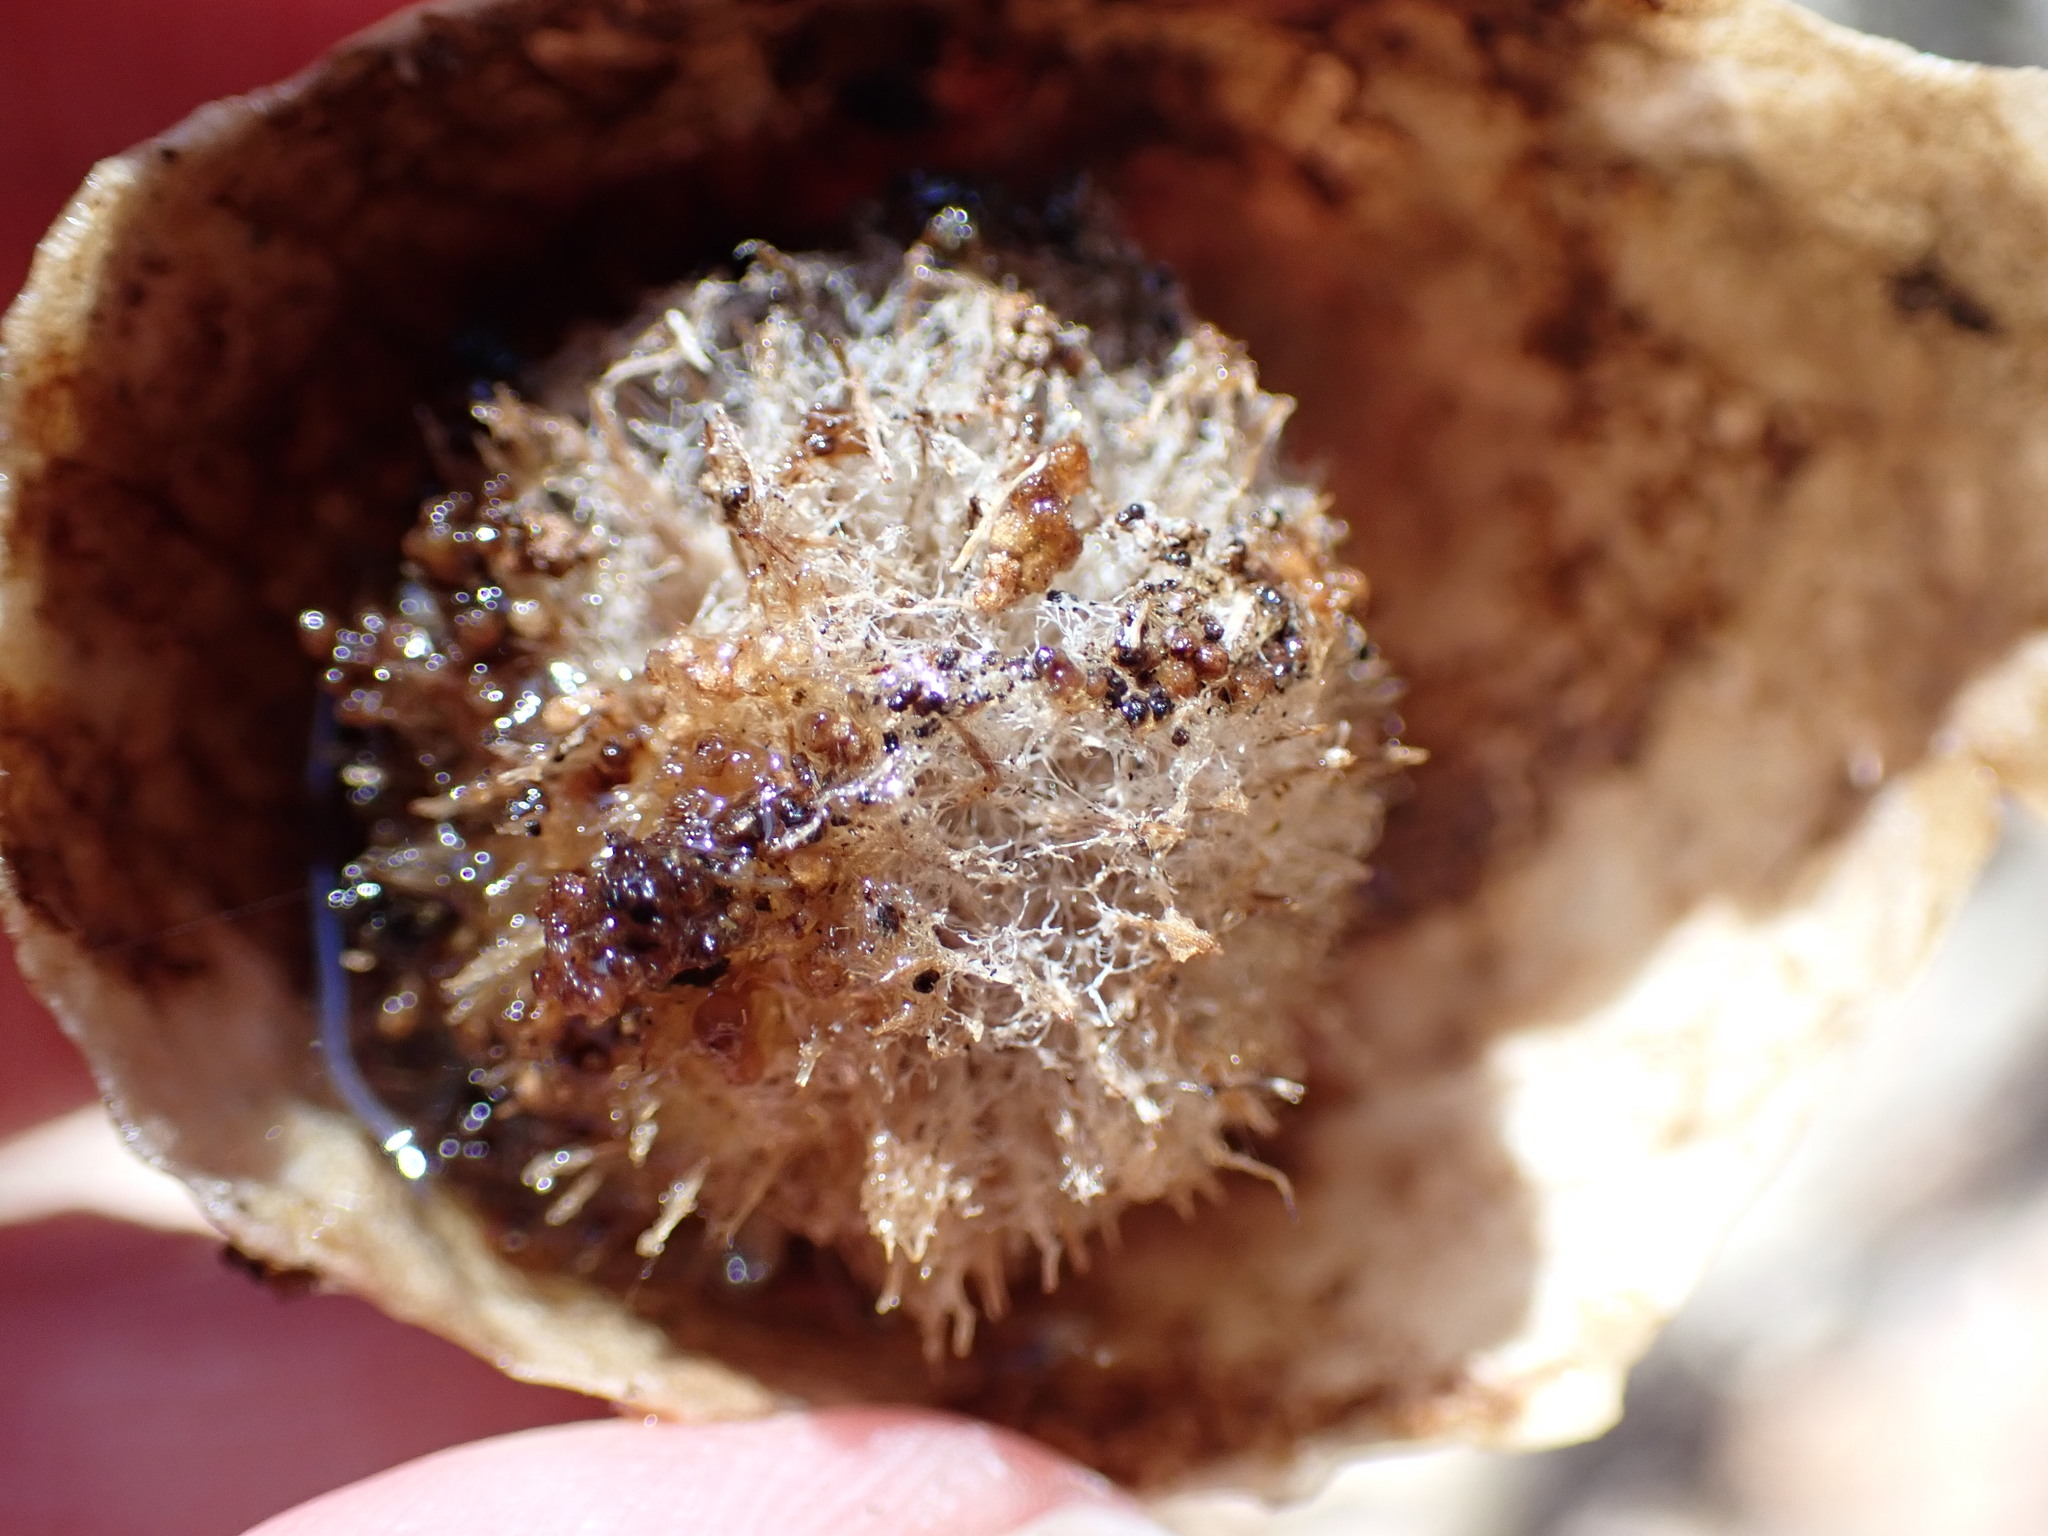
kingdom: Animalia
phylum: Arthropoda
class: Insecta
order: Hymenoptera
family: Cynipidae
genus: Amphibolips
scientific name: Amphibolips
